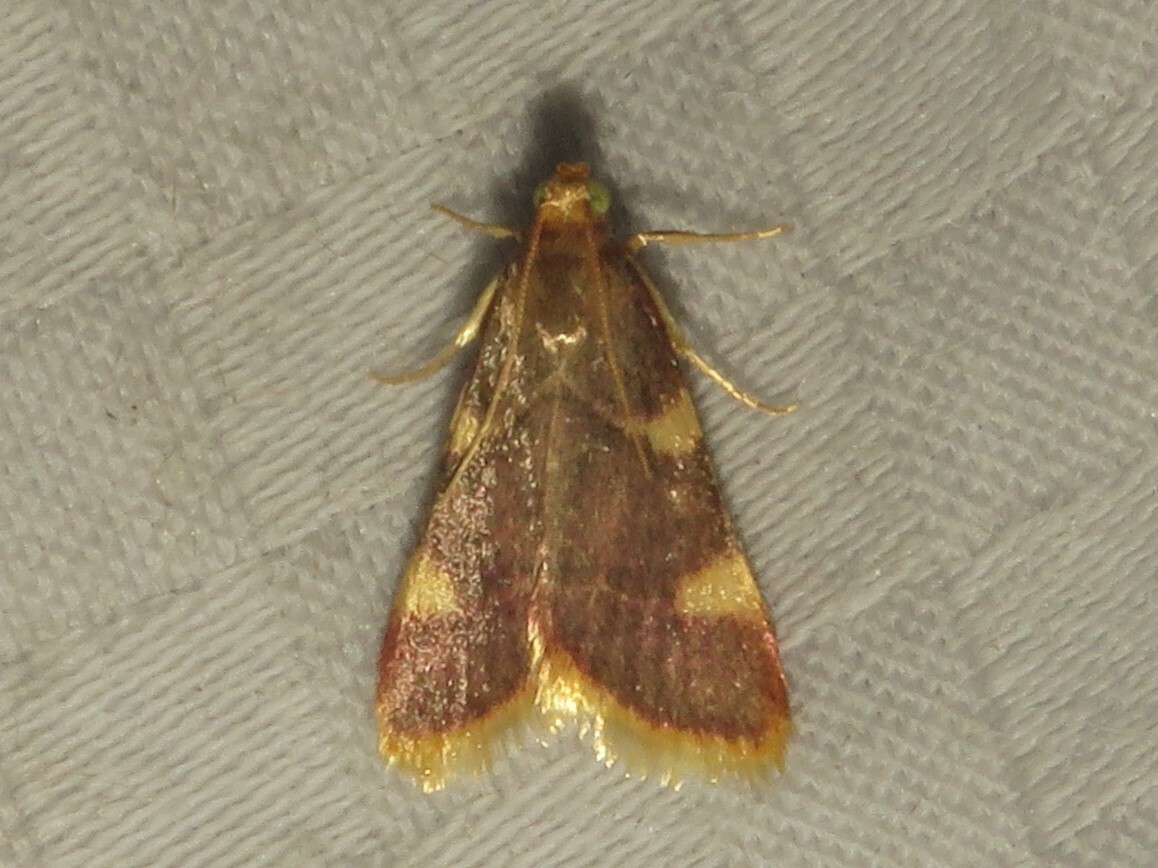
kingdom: Animalia
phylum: Arthropoda
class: Insecta
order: Lepidoptera
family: Pyralidae
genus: Hypsopygia
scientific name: Hypsopygia costalis
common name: Gold triangle
